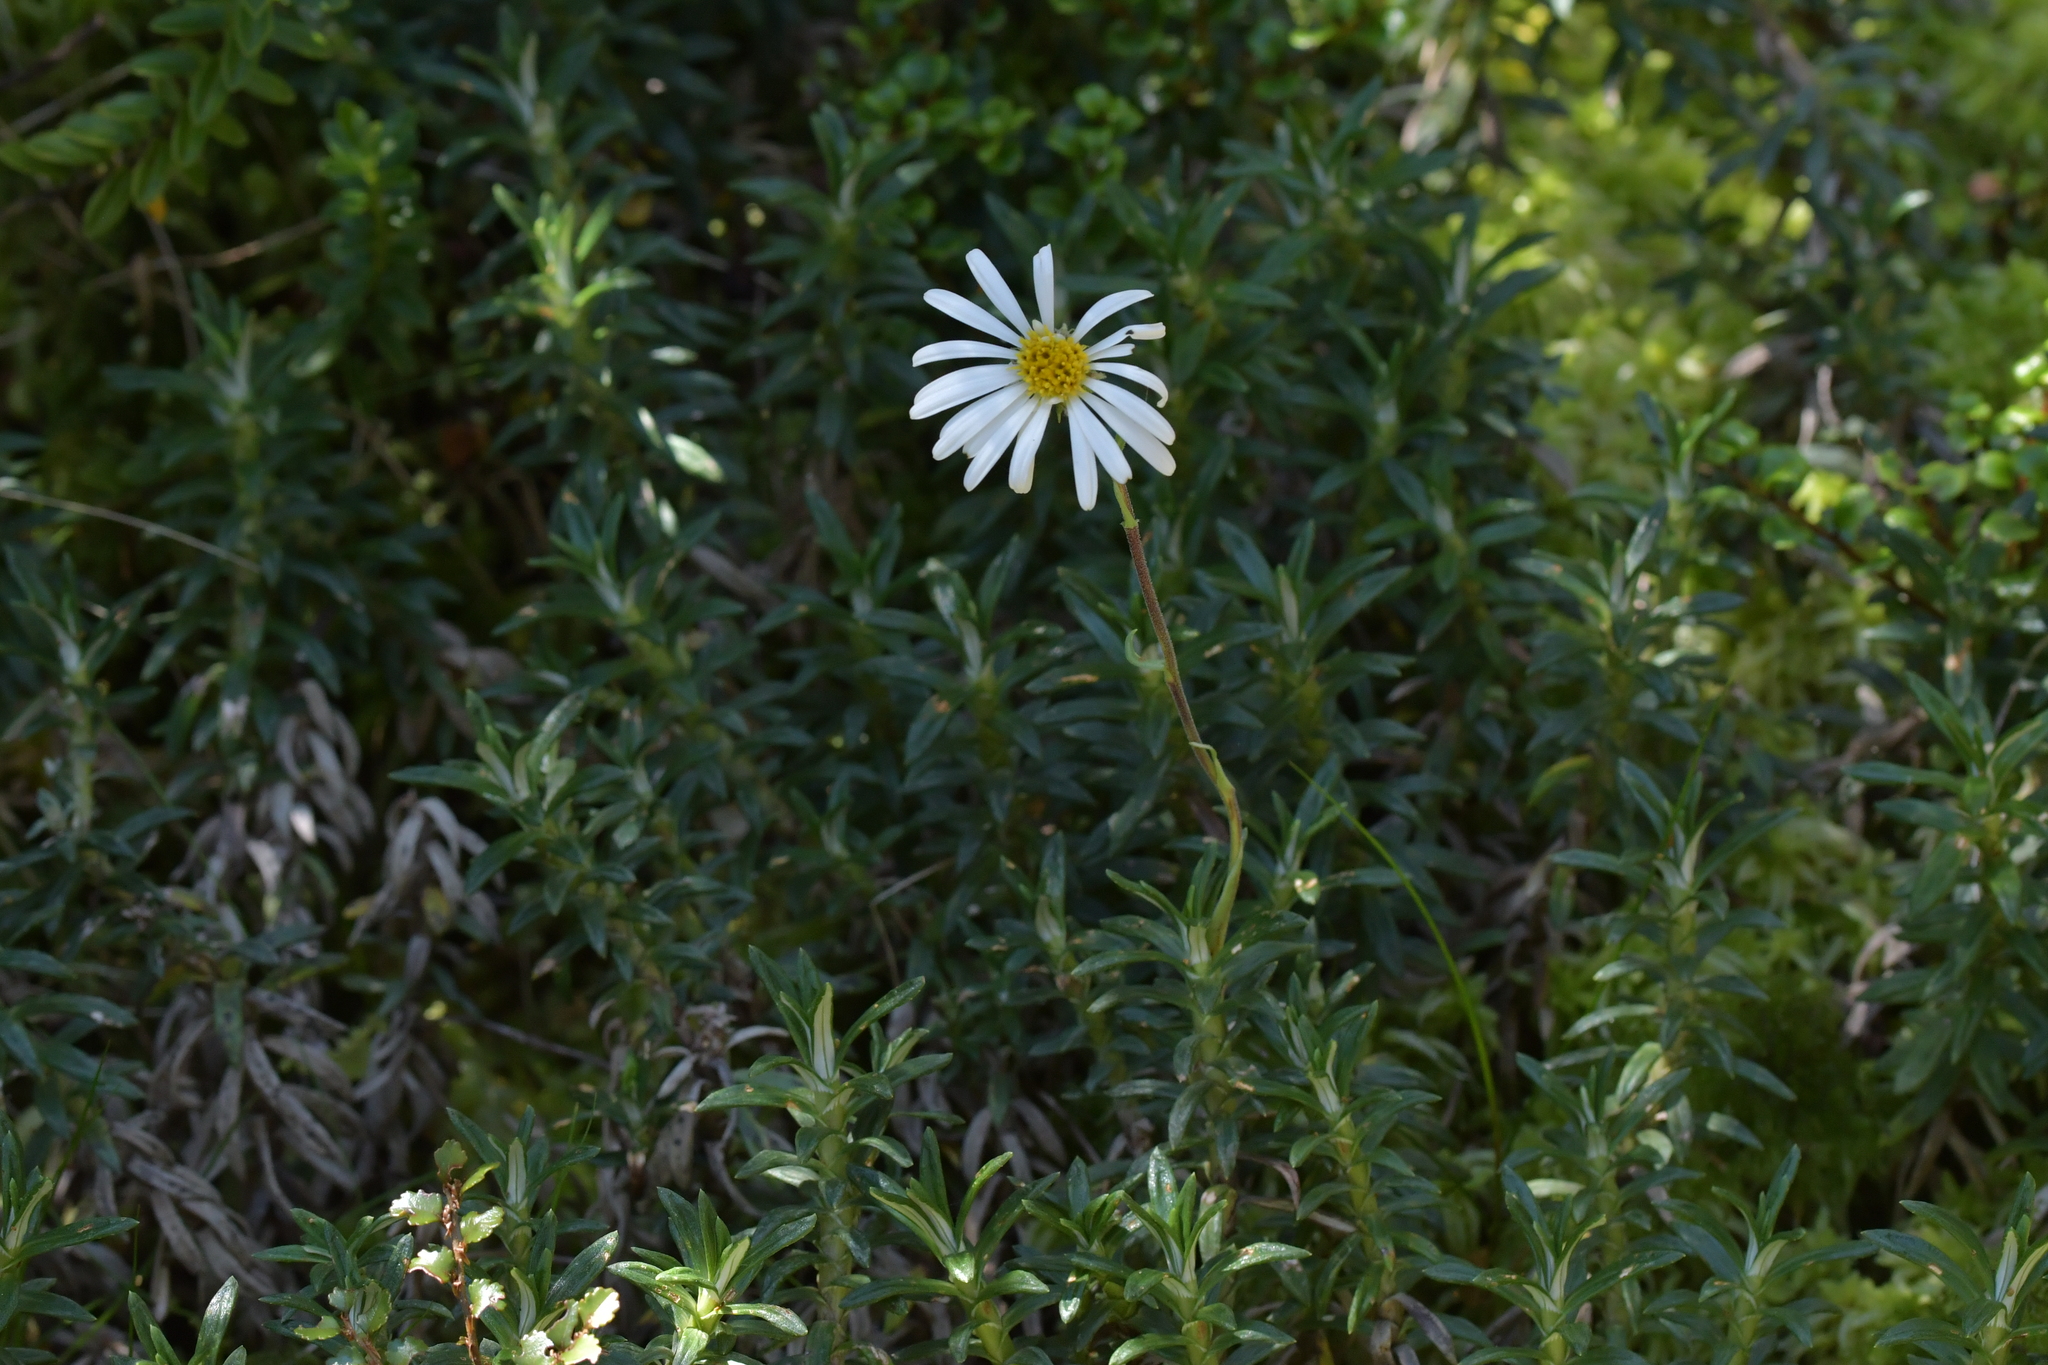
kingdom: Plantae
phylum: Tracheophyta
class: Magnoliopsida
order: Asterales
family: Asteraceae
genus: Celmisia
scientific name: Celmisia walkeri
